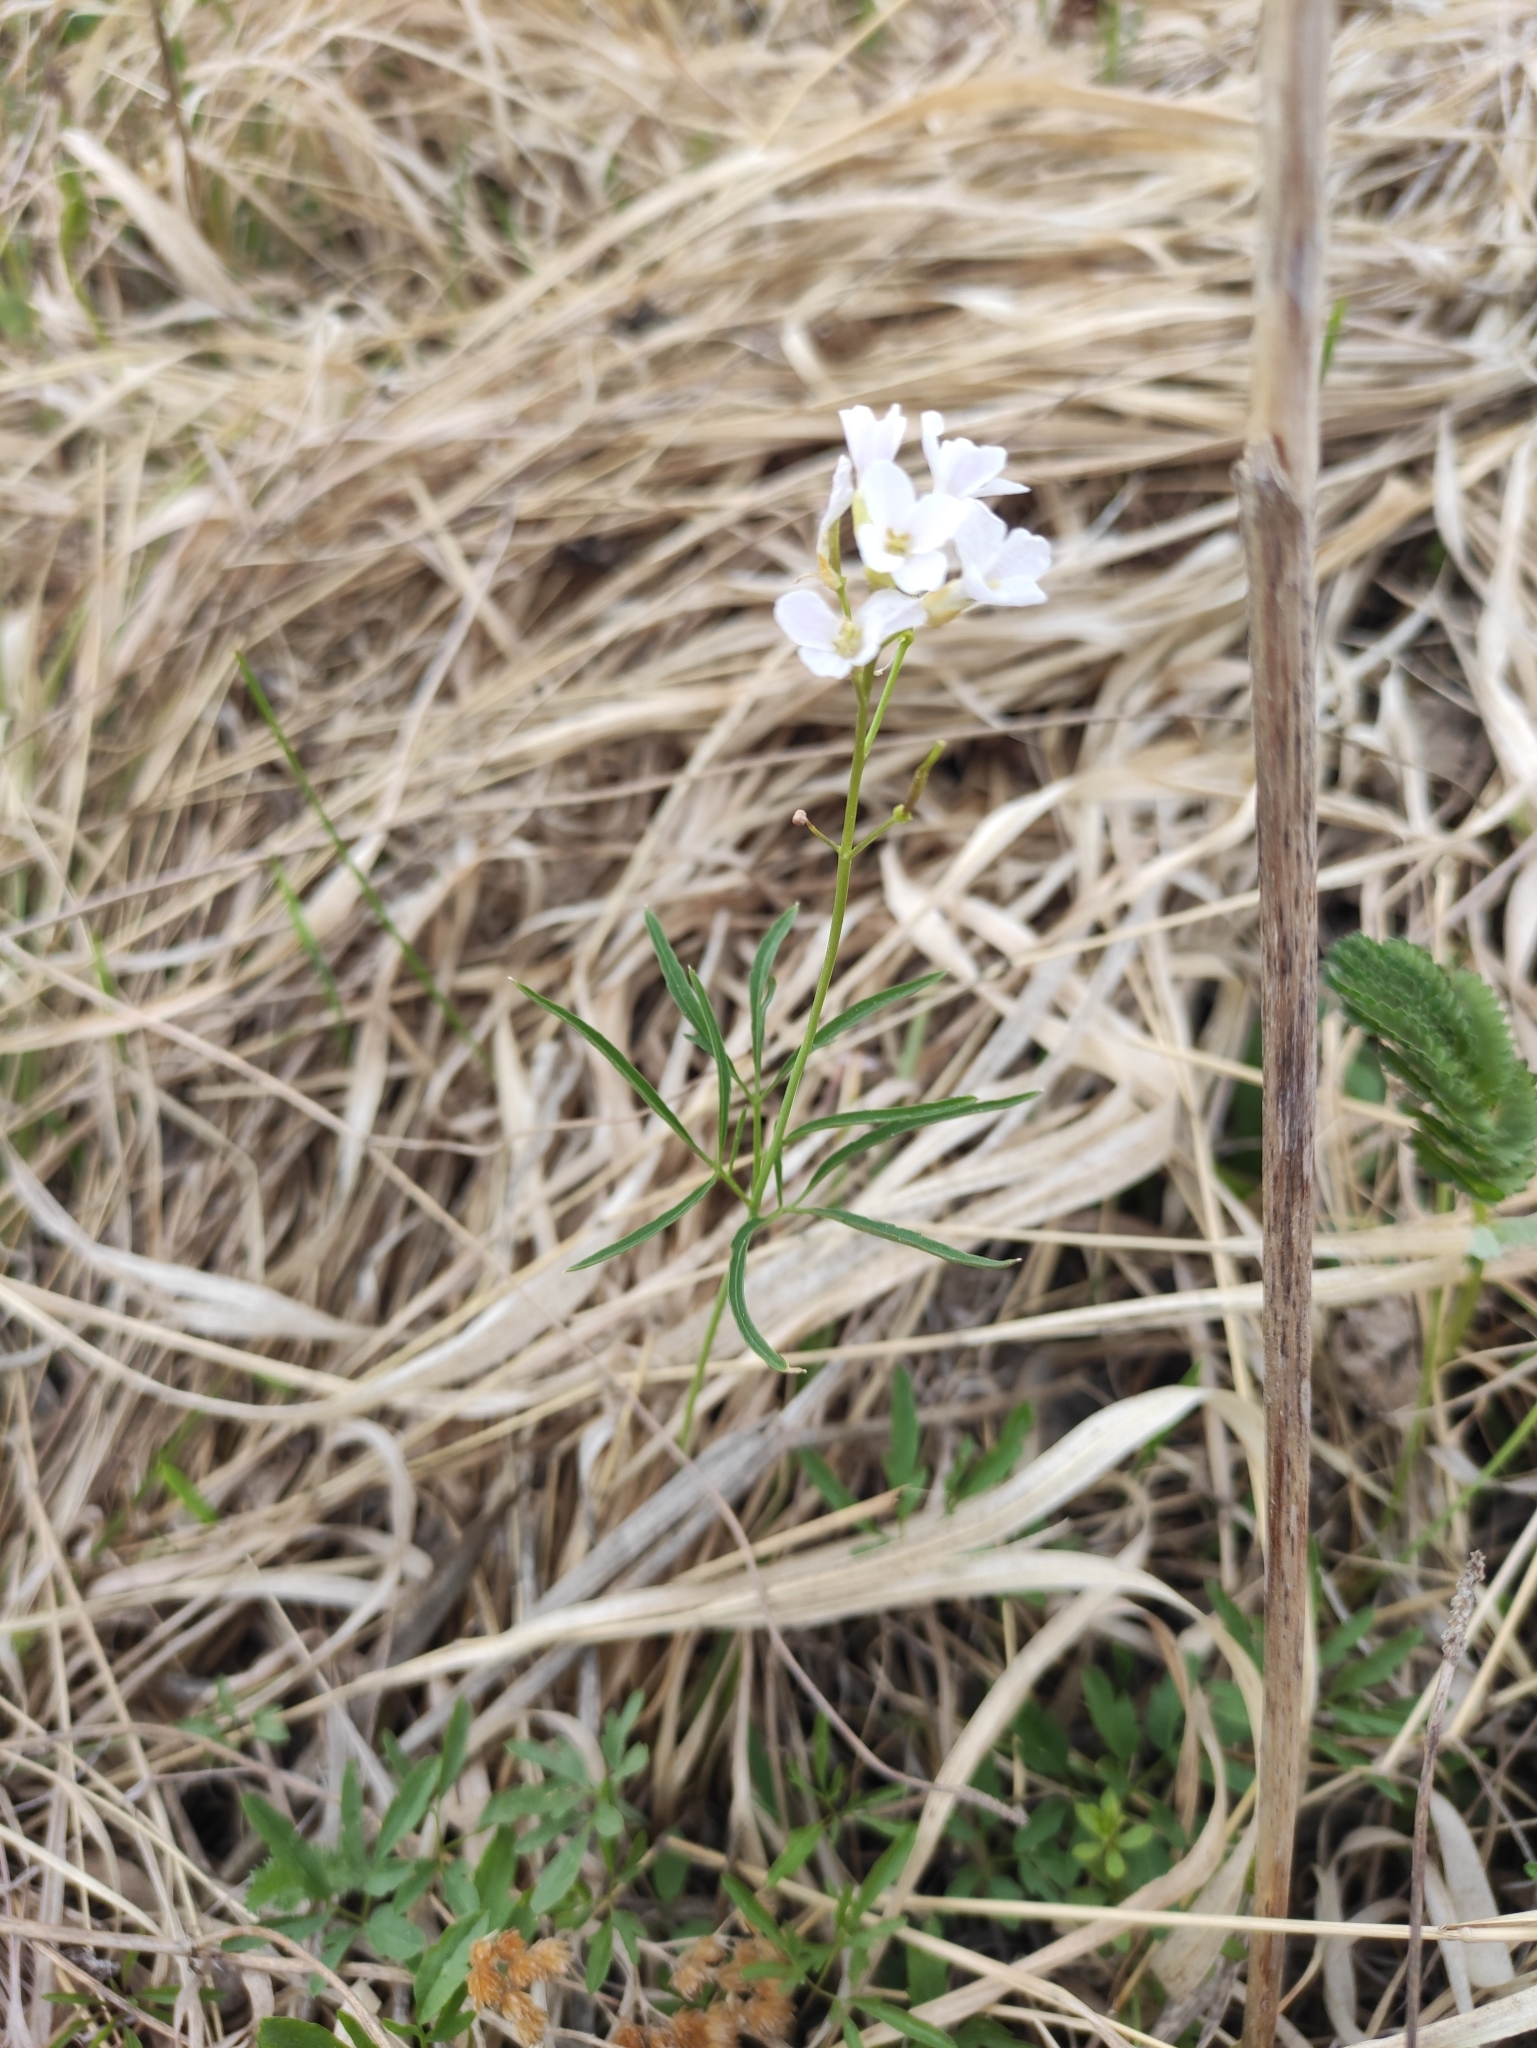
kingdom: Plantae
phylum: Tracheophyta
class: Magnoliopsida
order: Brassicales
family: Brassicaceae
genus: Cardamine
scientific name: Cardamine trifida
